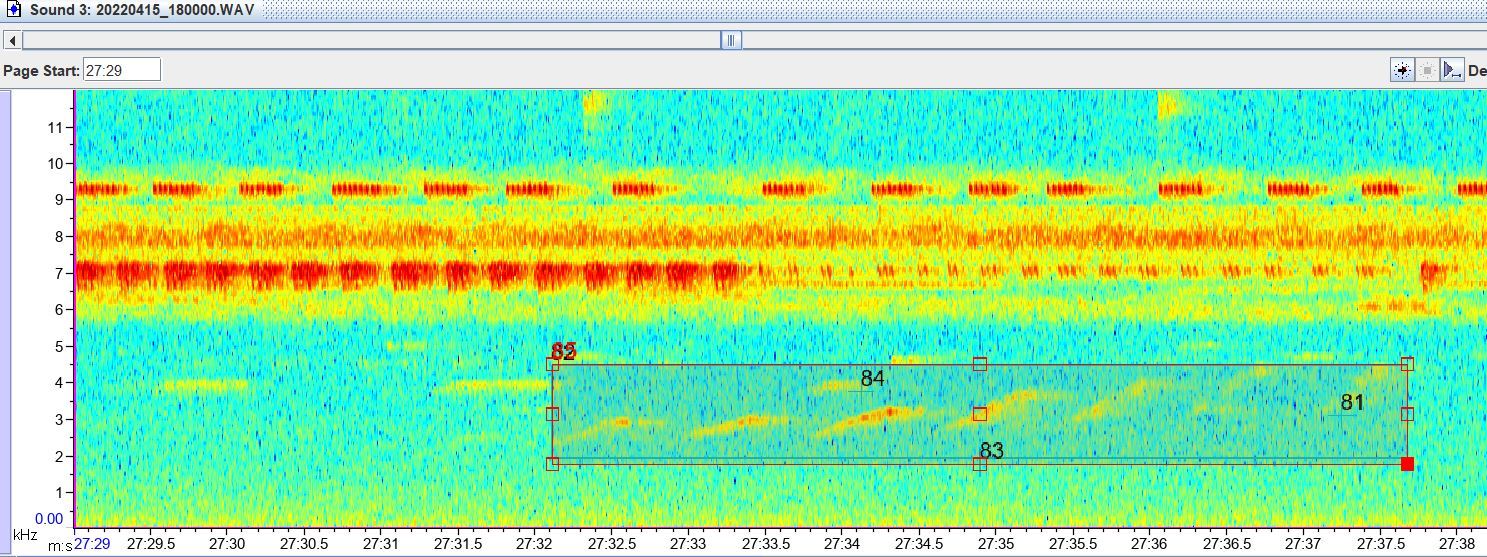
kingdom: Animalia
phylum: Chordata
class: Aves
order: Passeriformes
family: Thamnophilidae
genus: Willisornis
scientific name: Willisornis poecilinotus
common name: Common scale-backed antbird
